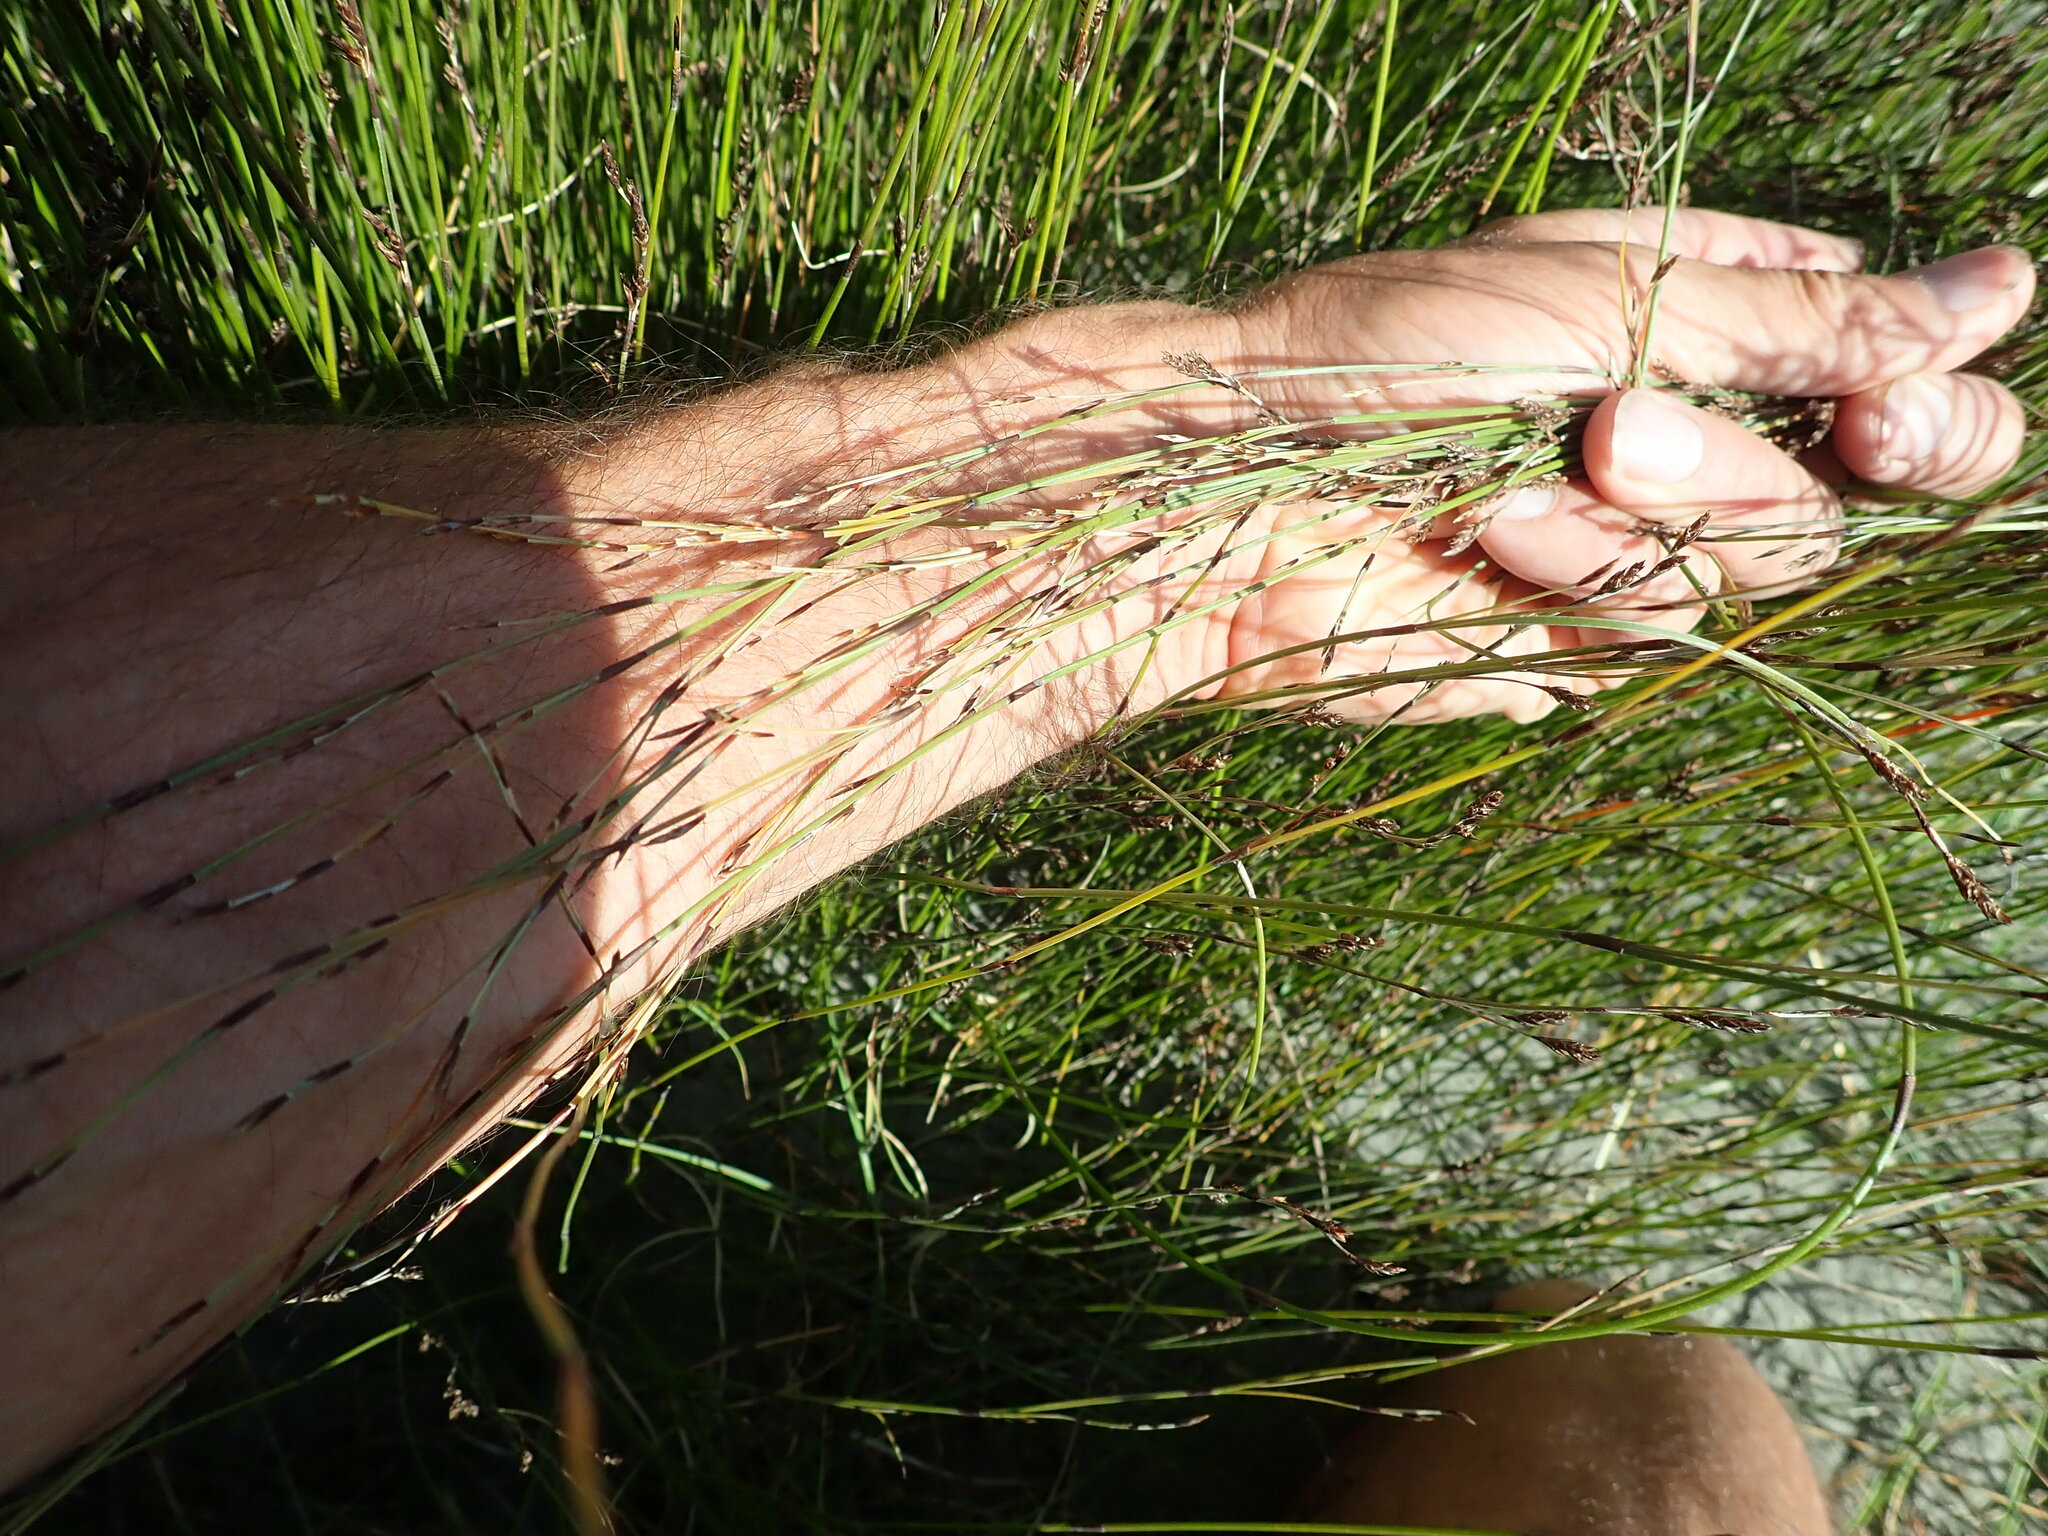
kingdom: Plantae
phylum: Tracheophyta
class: Liliopsida
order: Poales
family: Restionaceae
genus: Apodasmia
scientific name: Apodasmia similis
